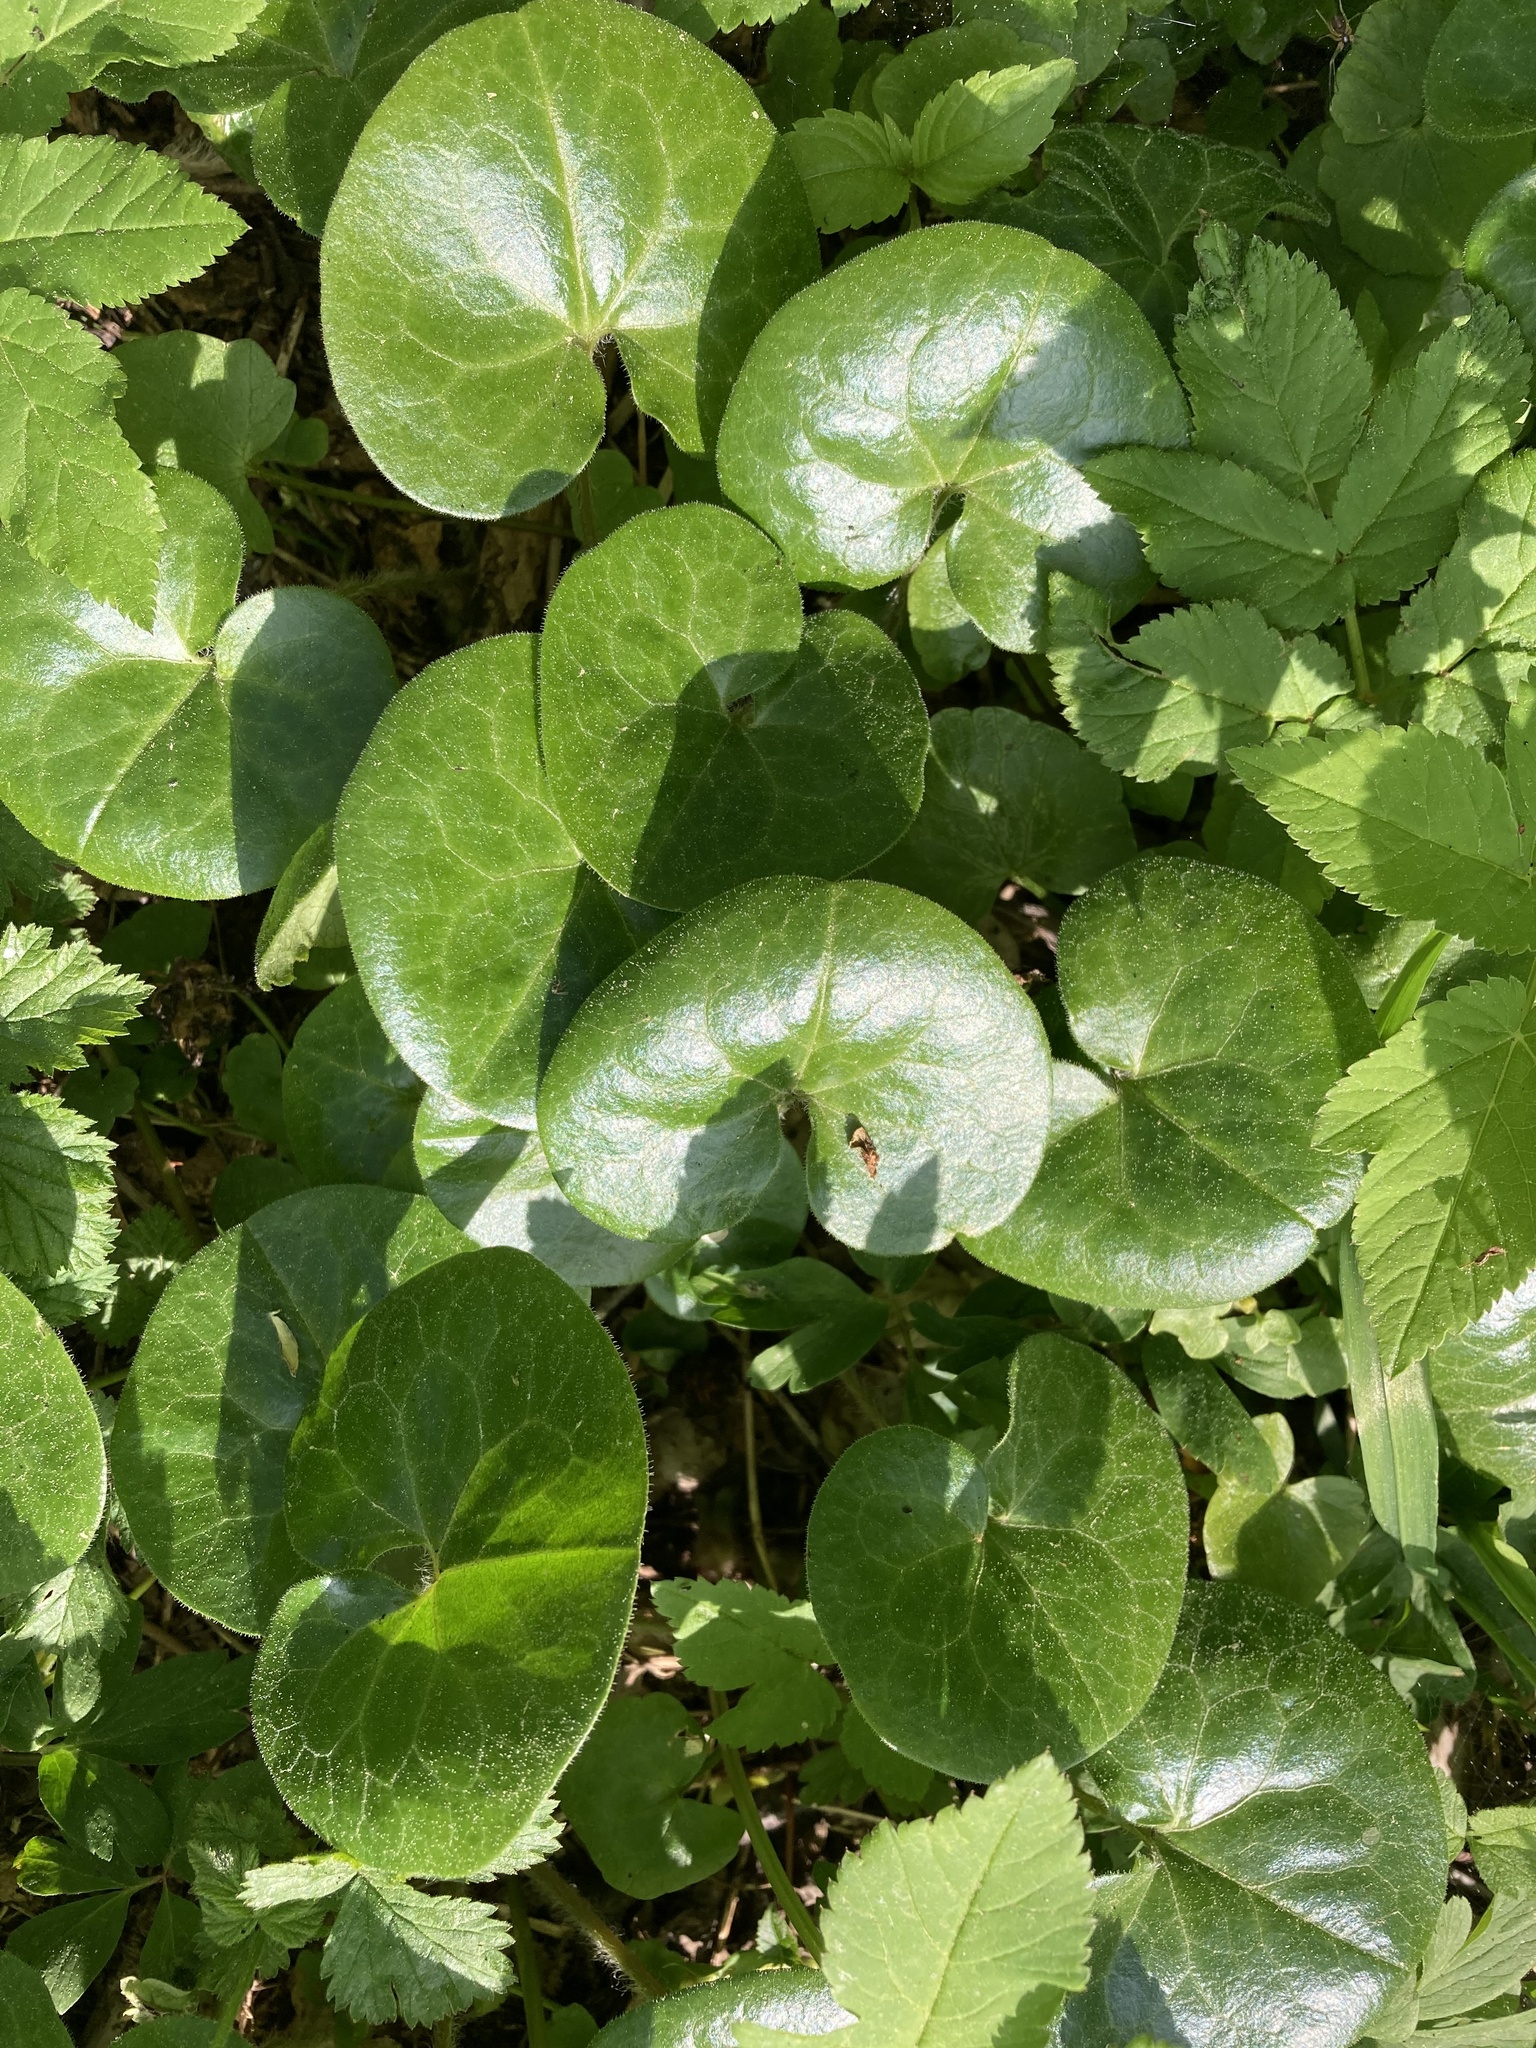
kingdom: Plantae
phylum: Tracheophyta
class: Magnoliopsida
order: Piperales
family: Aristolochiaceae
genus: Asarum
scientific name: Asarum europaeum
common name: Asarabacca
